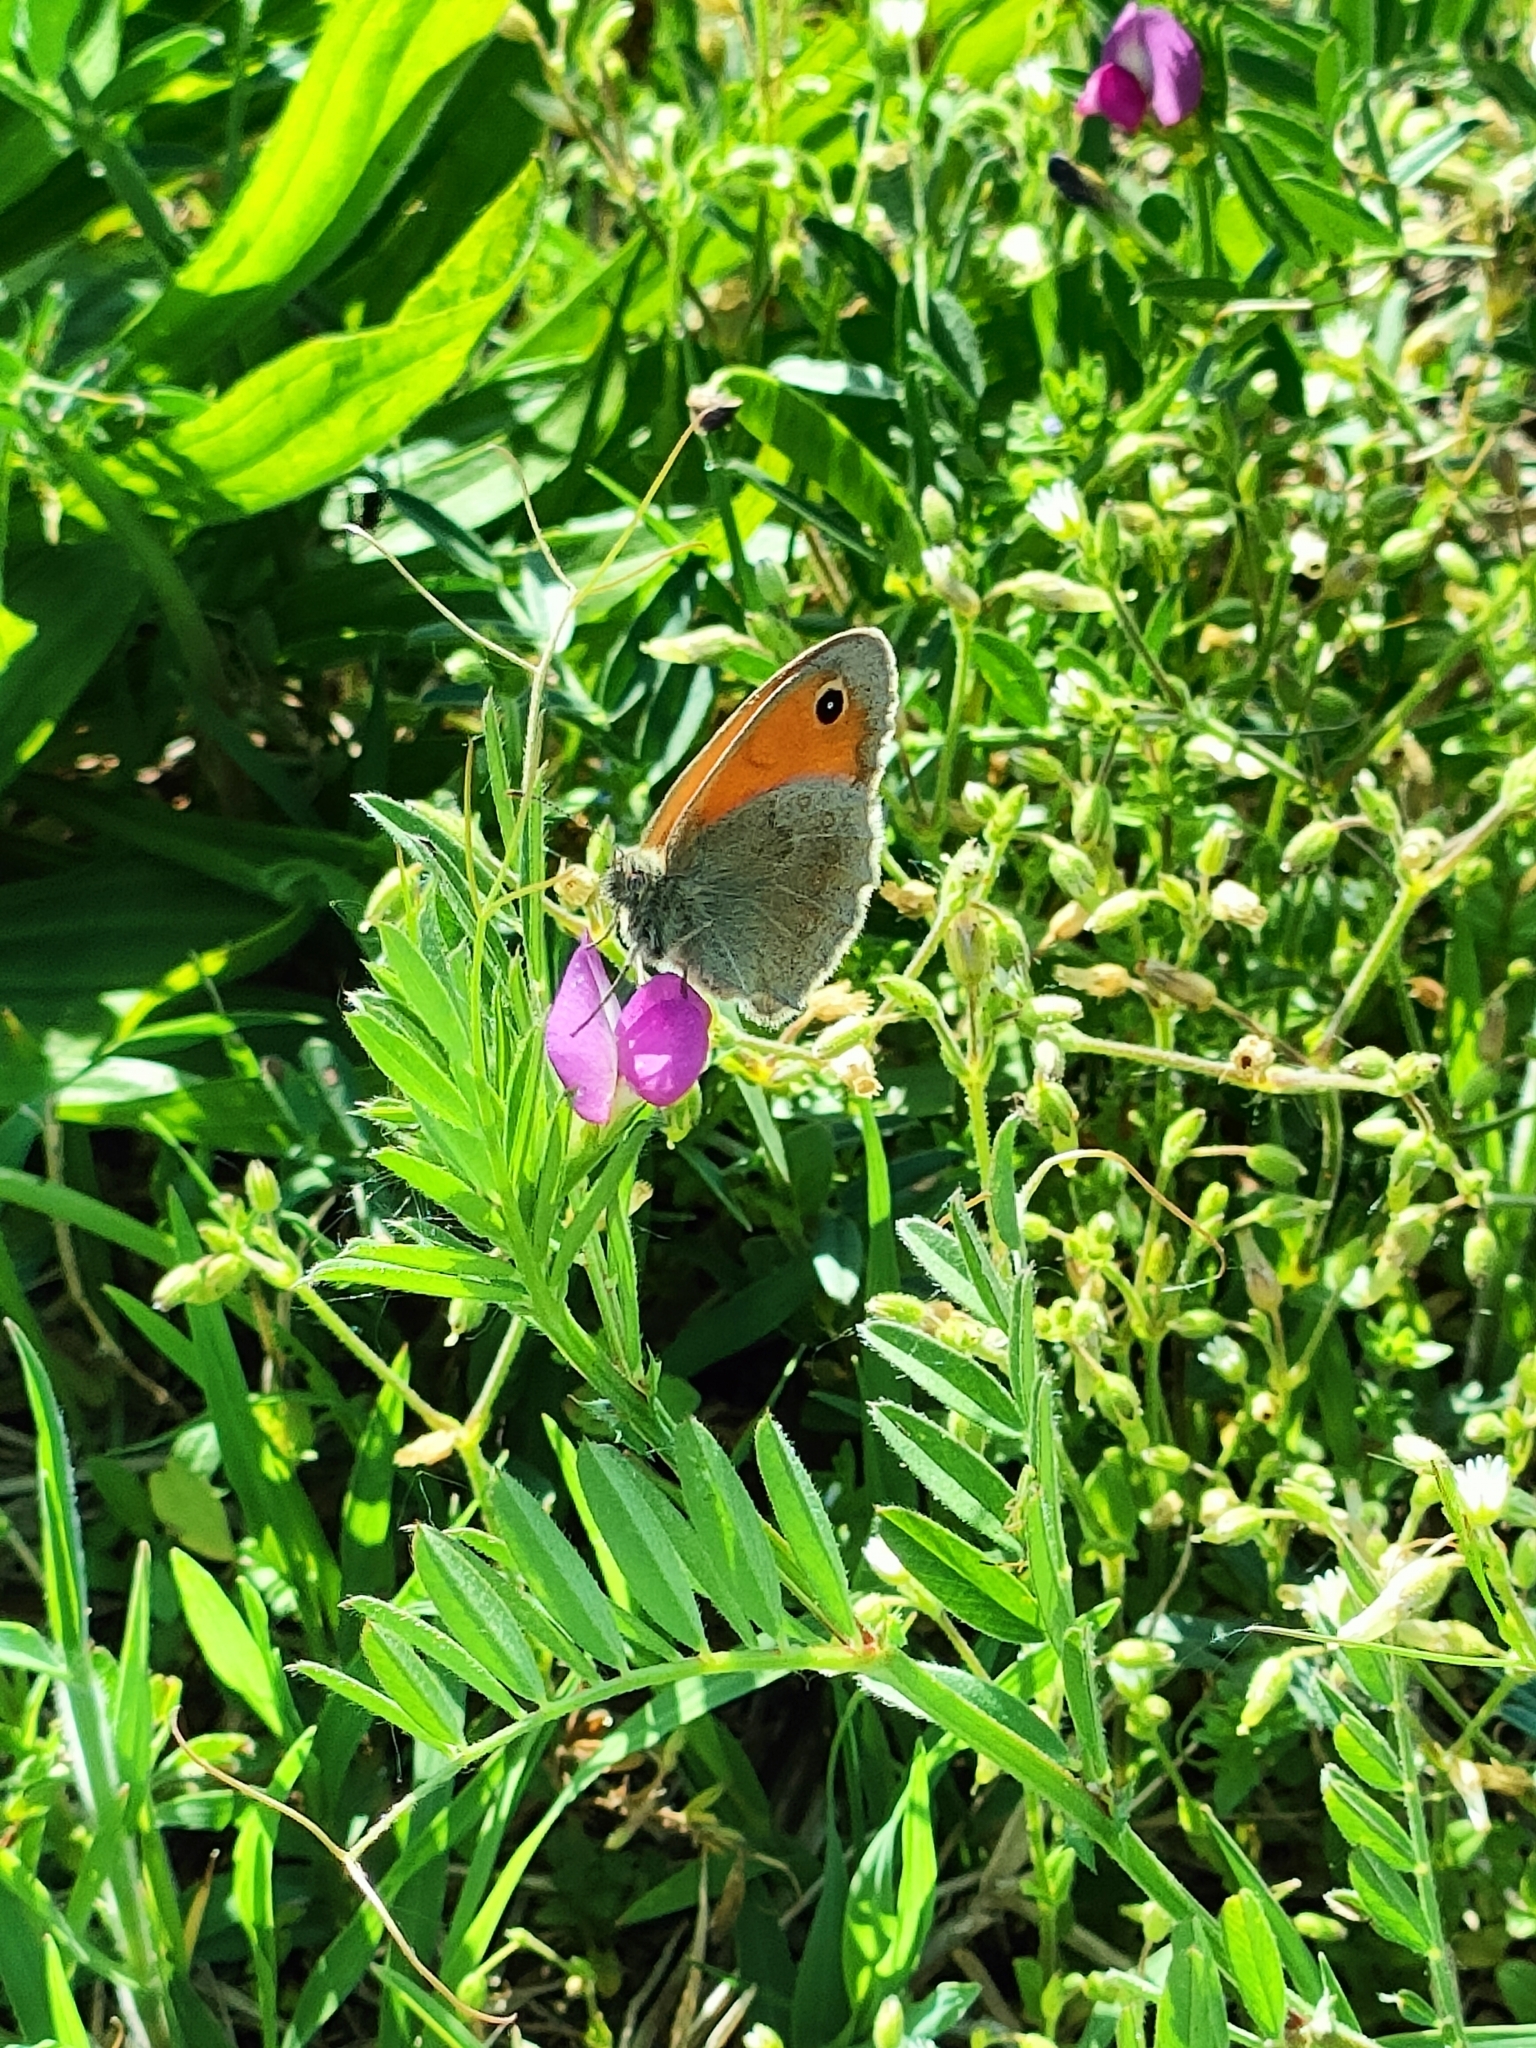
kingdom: Animalia
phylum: Arthropoda
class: Insecta
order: Lepidoptera
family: Nymphalidae
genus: Coenonympha
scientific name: Coenonympha pamphilus
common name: Small heath
